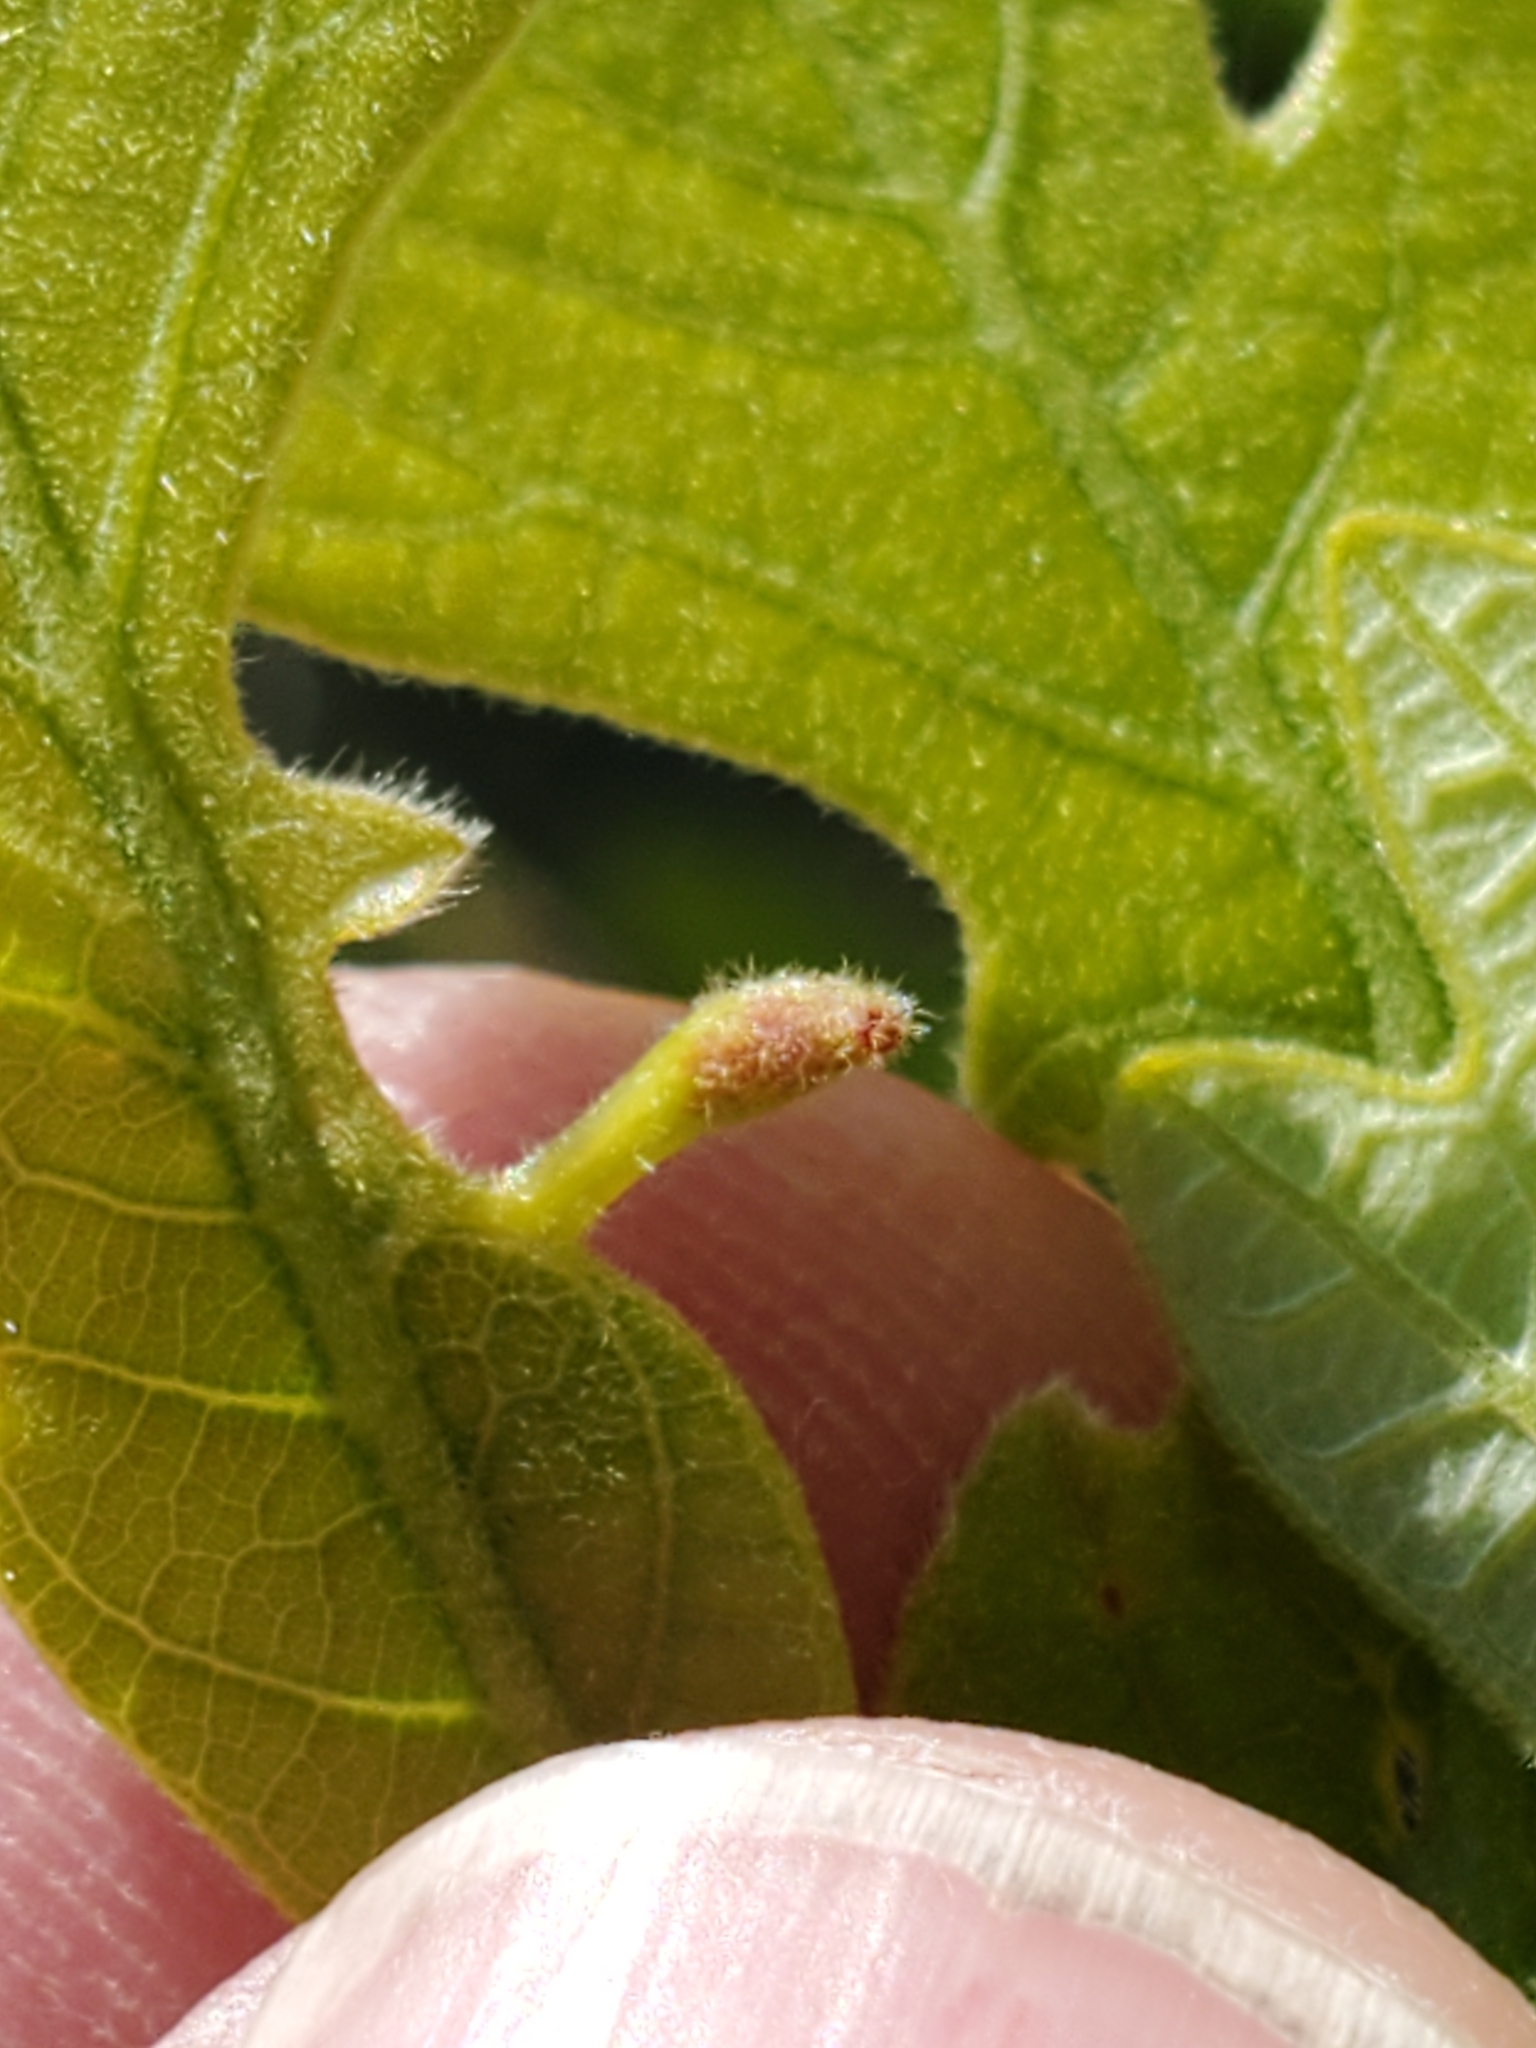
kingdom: Animalia
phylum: Arthropoda
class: Insecta
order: Hymenoptera
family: Cynipidae
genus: Andricus
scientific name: Andricus
